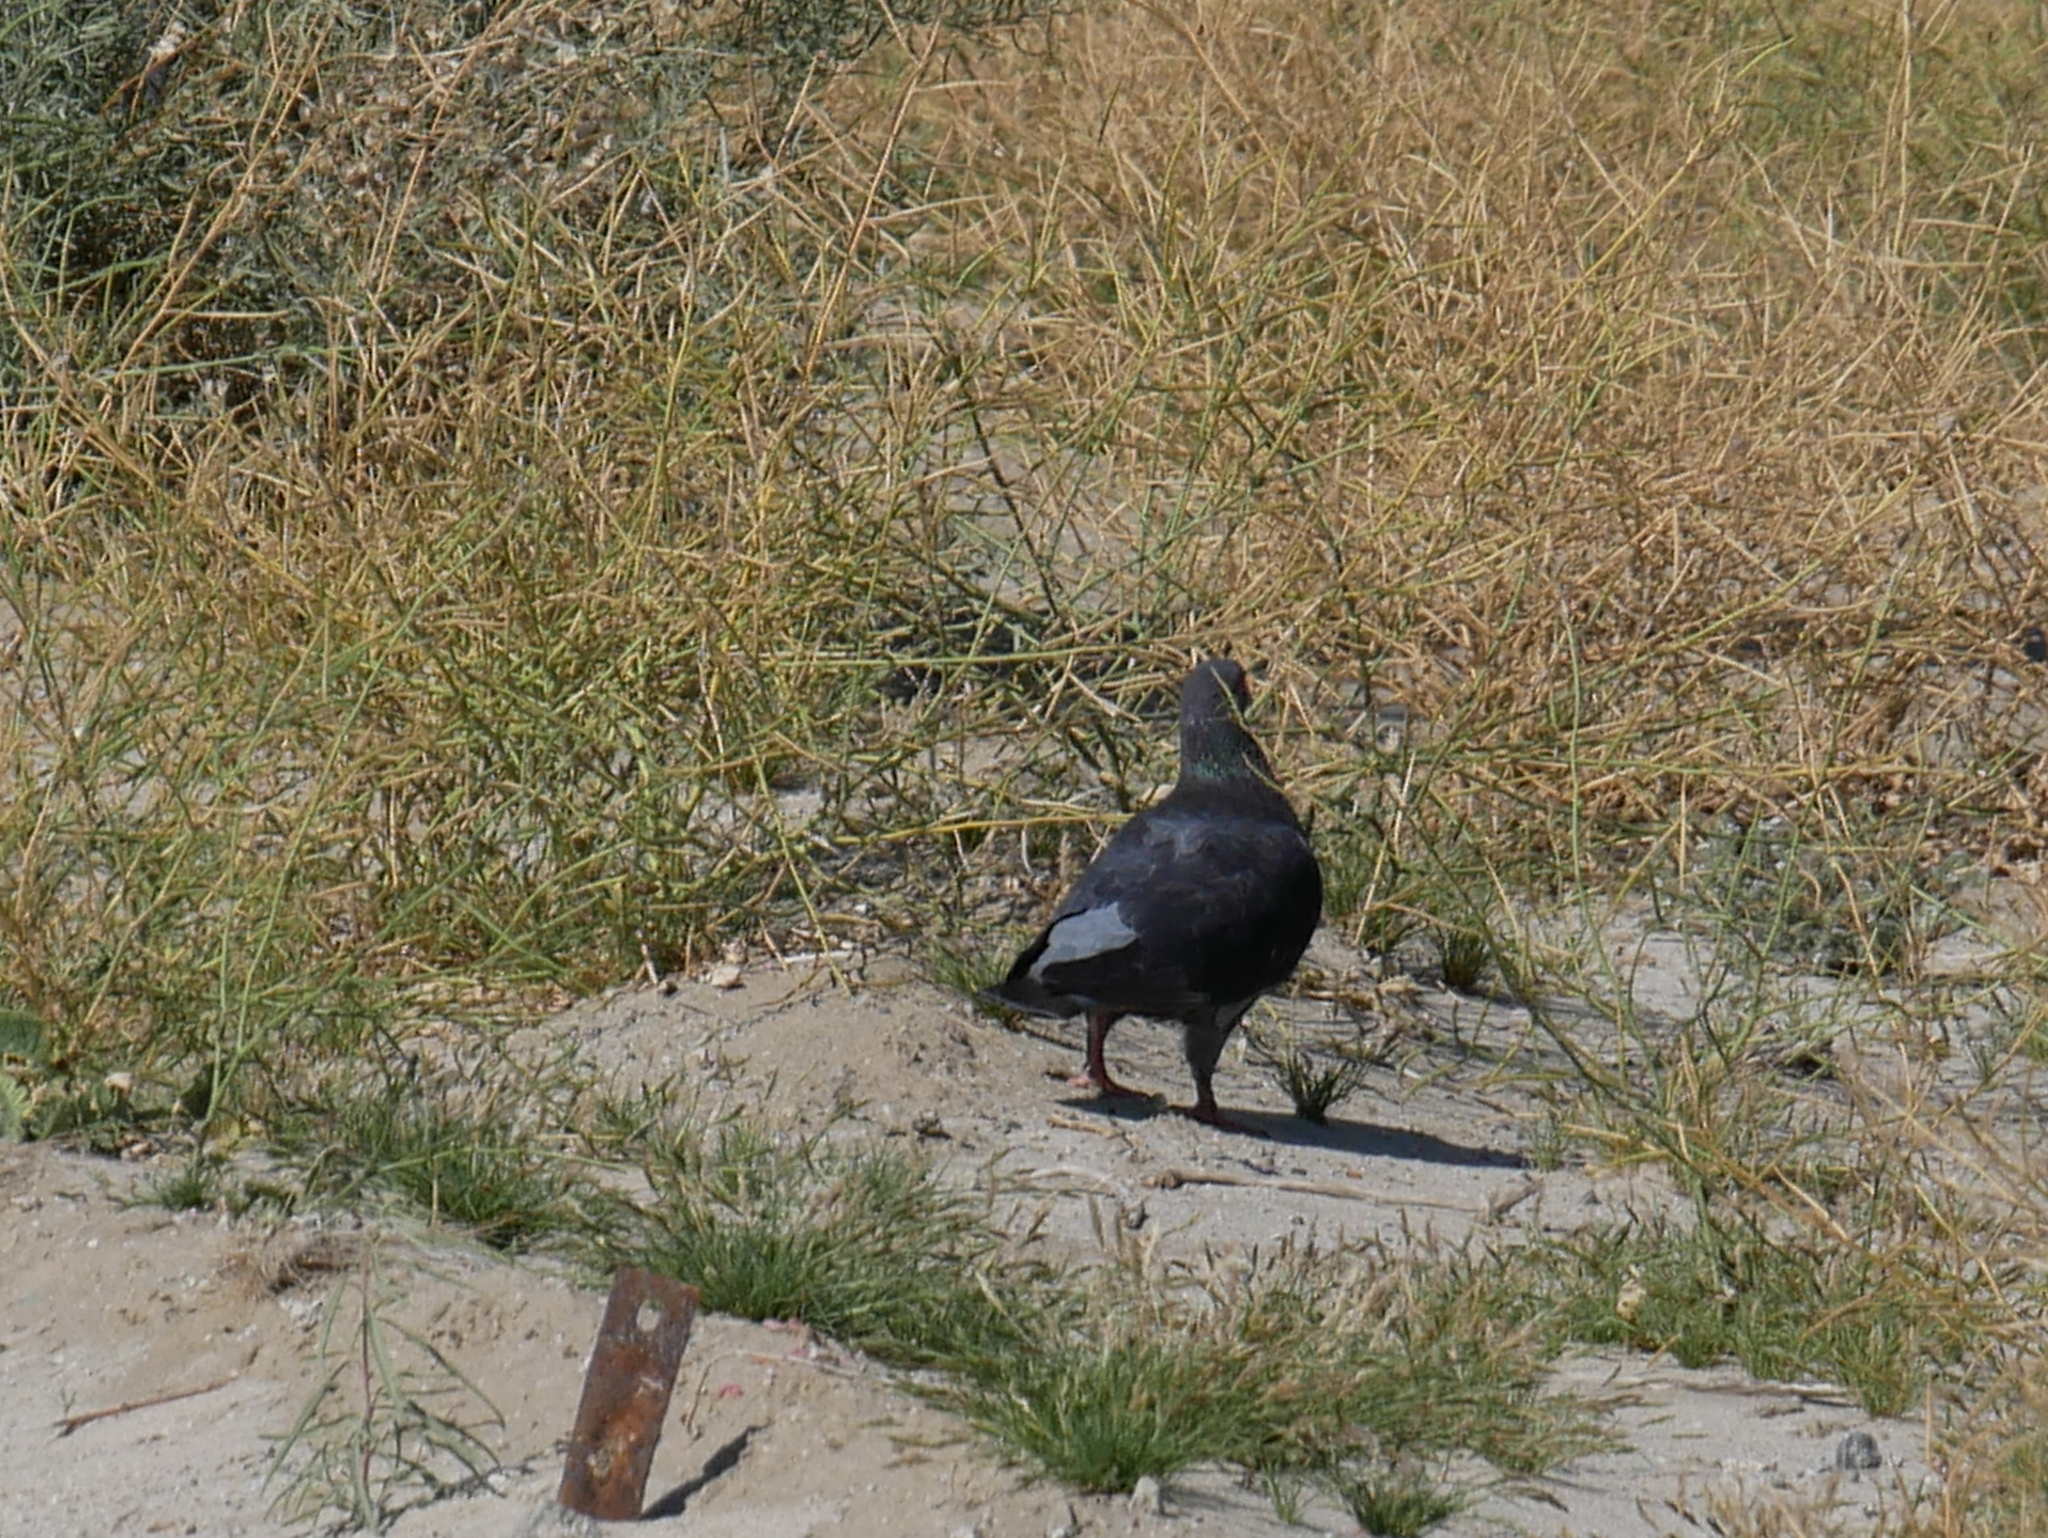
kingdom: Animalia
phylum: Chordata
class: Aves
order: Columbiformes
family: Columbidae
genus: Columba
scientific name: Columba livia
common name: Rock pigeon
